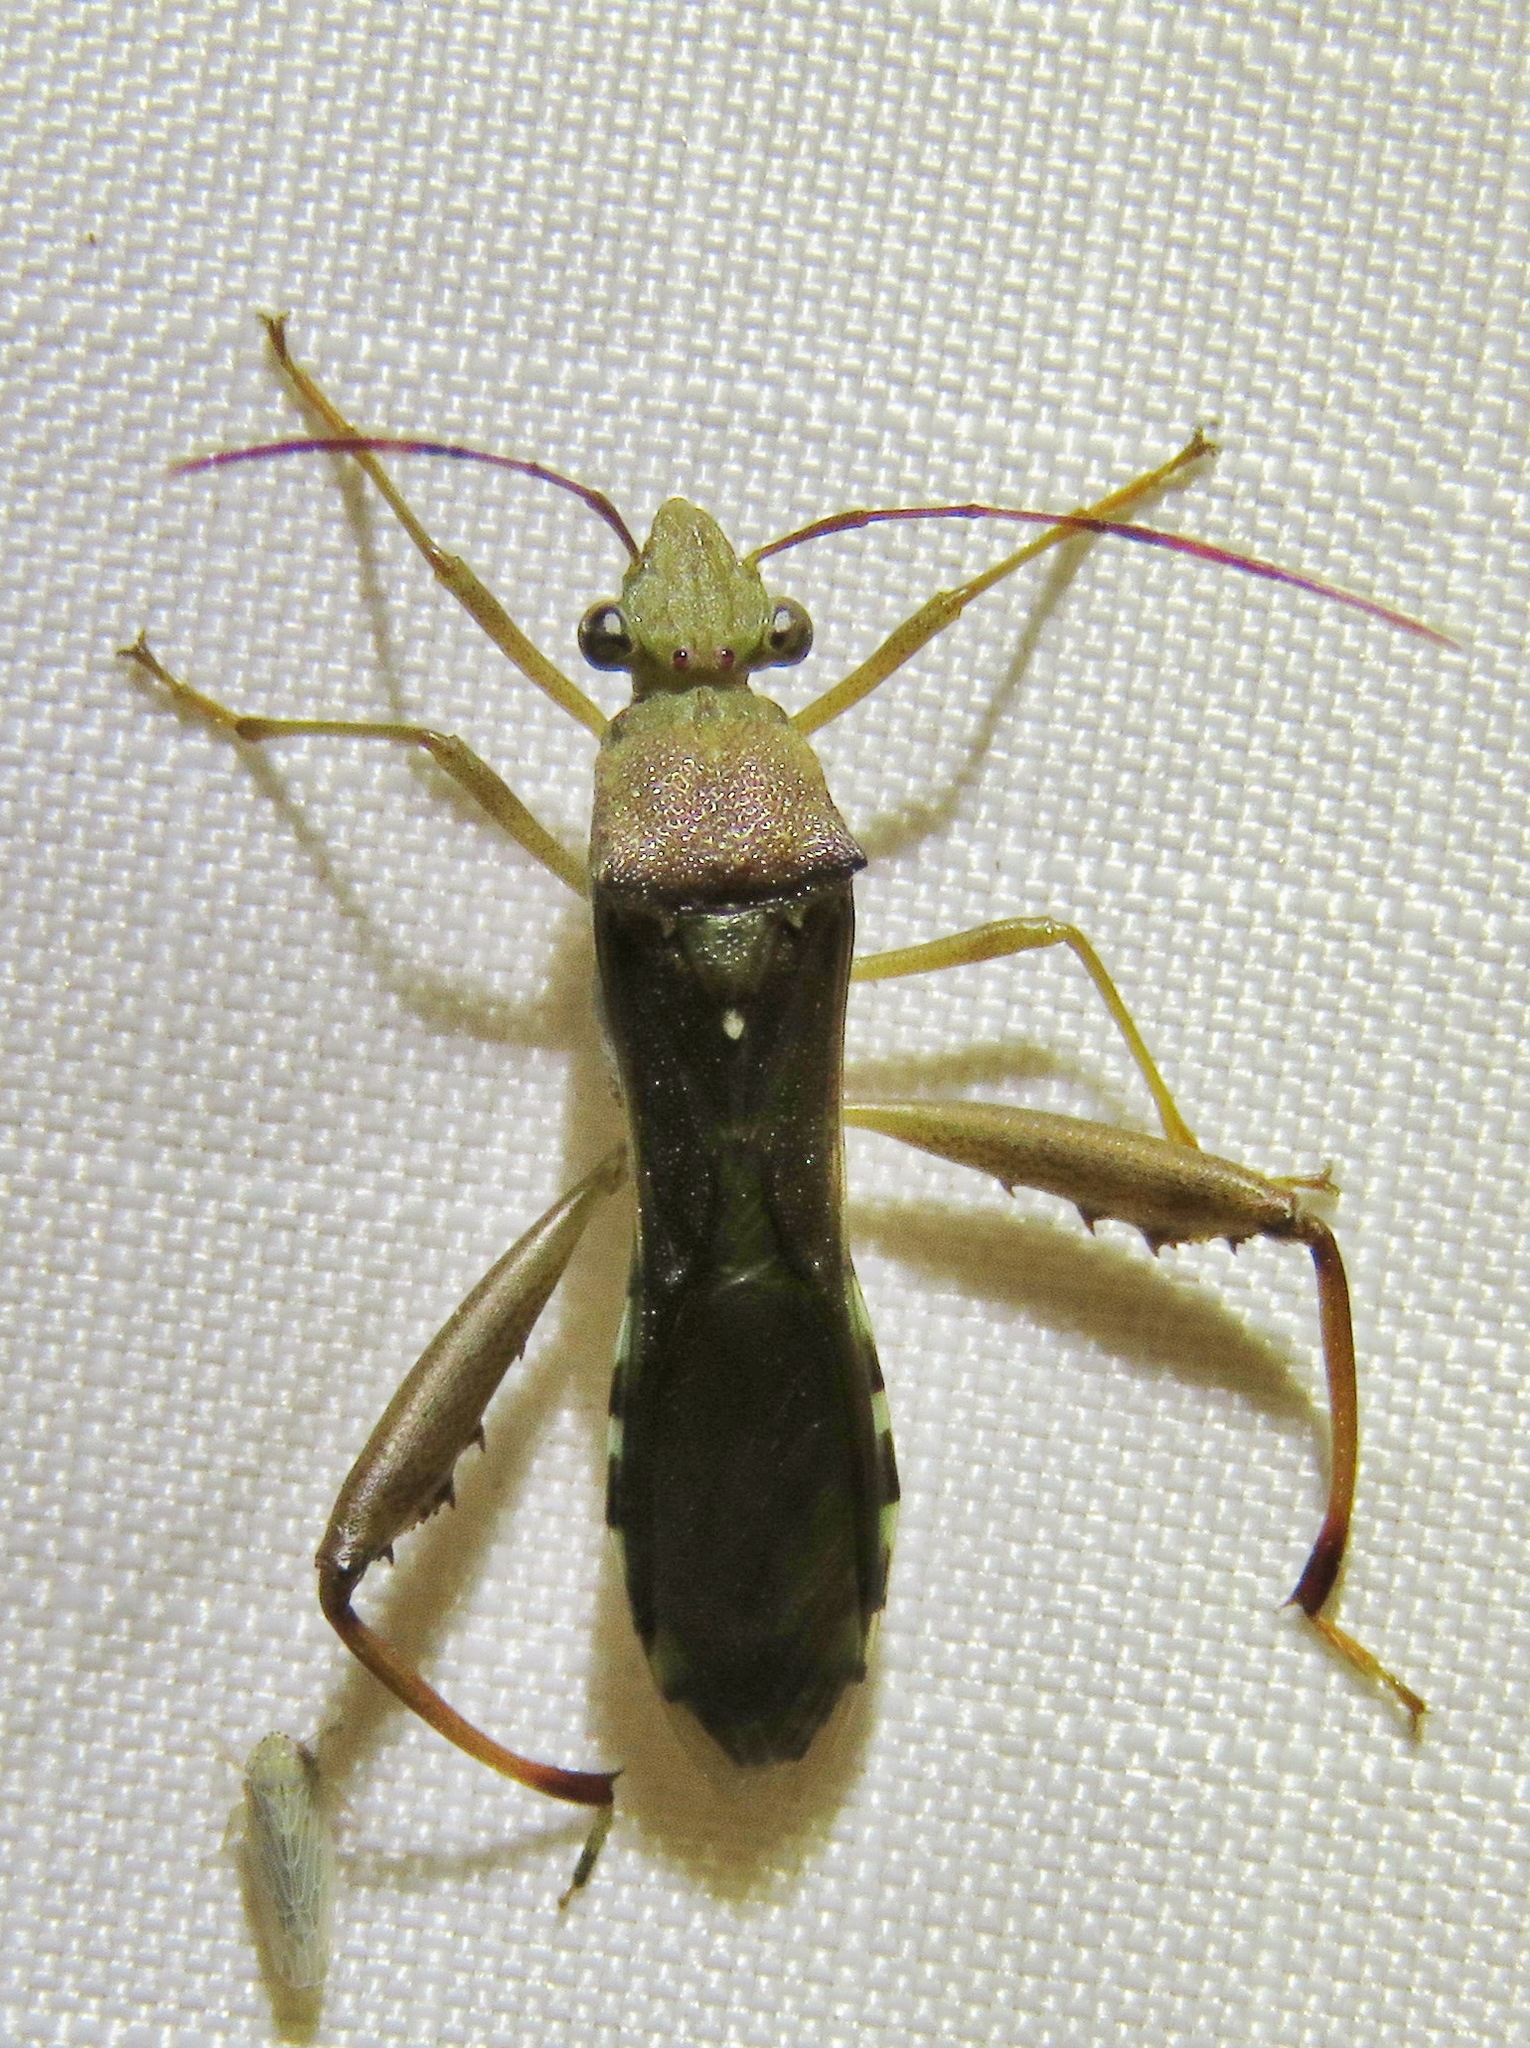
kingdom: Animalia
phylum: Arthropoda
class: Insecta
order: Hemiptera
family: Alydidae
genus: Hyalymenus
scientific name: Hyalymenus tarsatus
